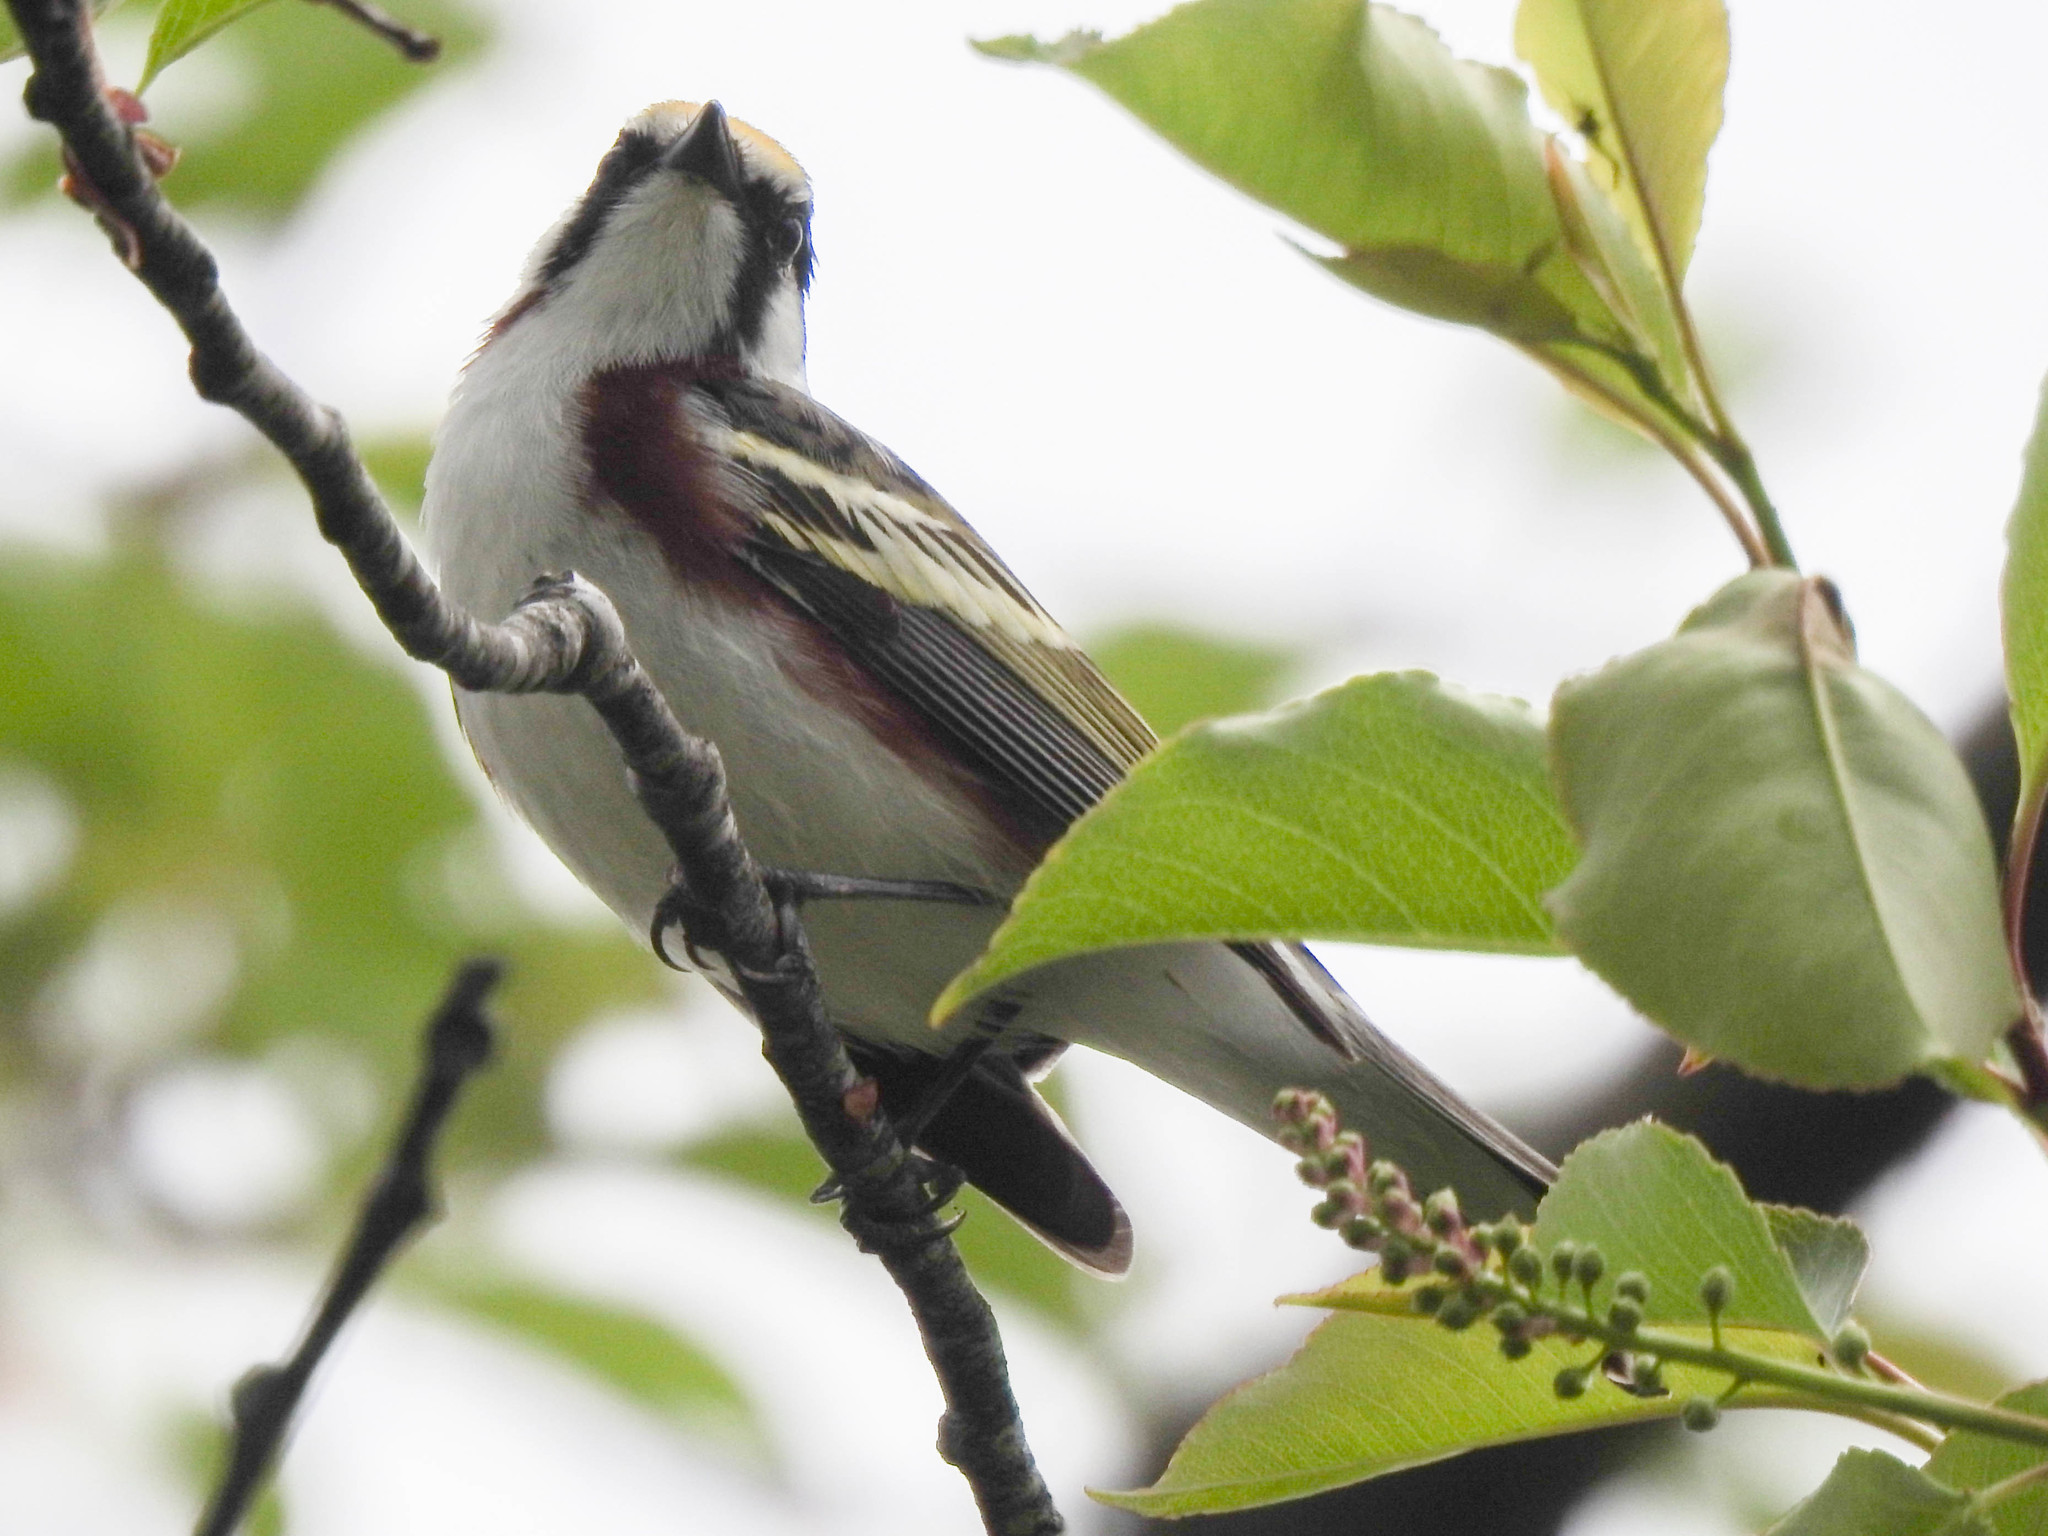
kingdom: Animalia
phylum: Chordata
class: Aves
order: Passeriformes
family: Parulidae
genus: Setophaga
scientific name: Setophaga pensylvanica
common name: Chestnut-sided warbler
